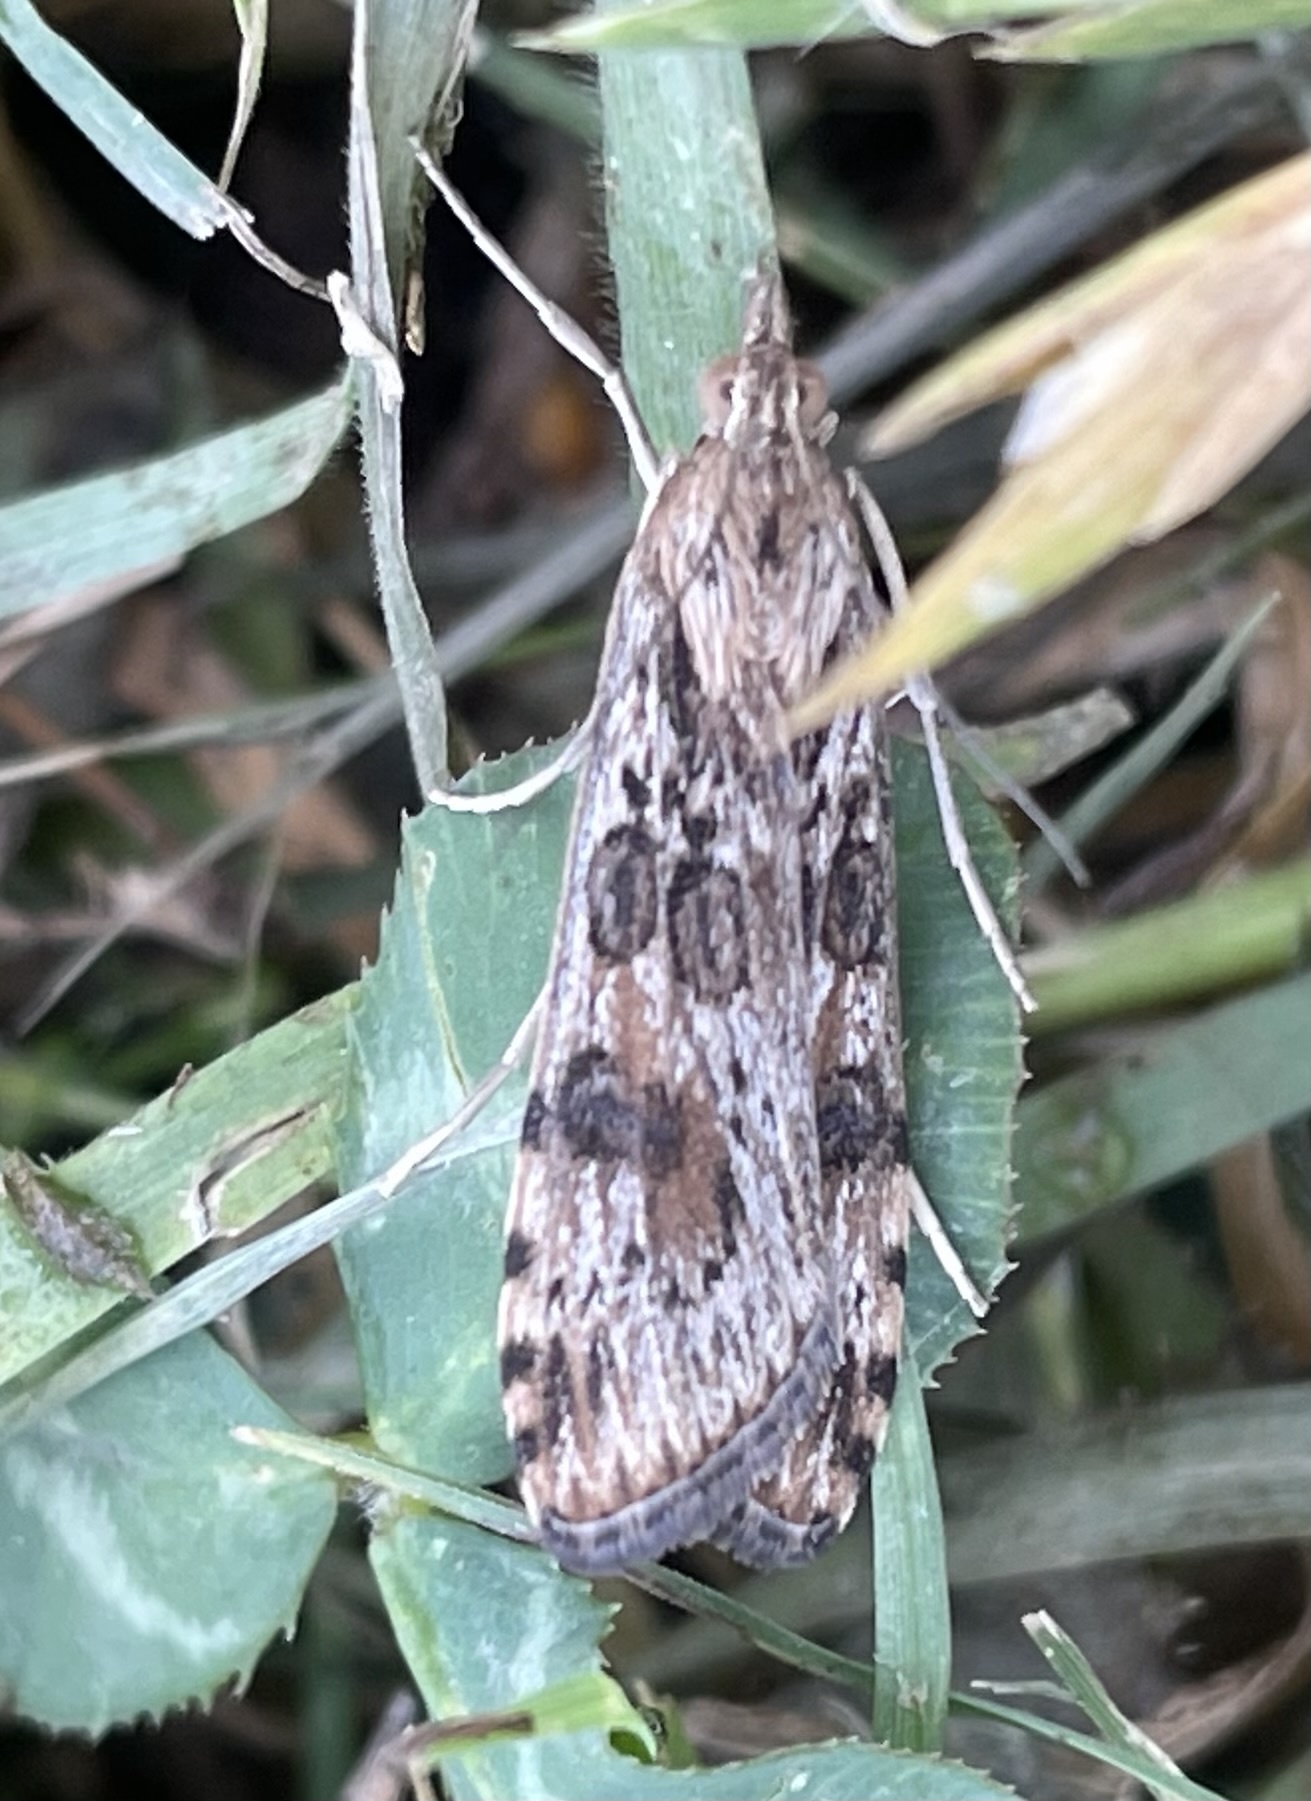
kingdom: Animalia
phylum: Arthropoda
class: Insecta
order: Lepidoptera
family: Crambidae
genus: Nomophila
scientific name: Nomophila nearctica
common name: American rush veneer
